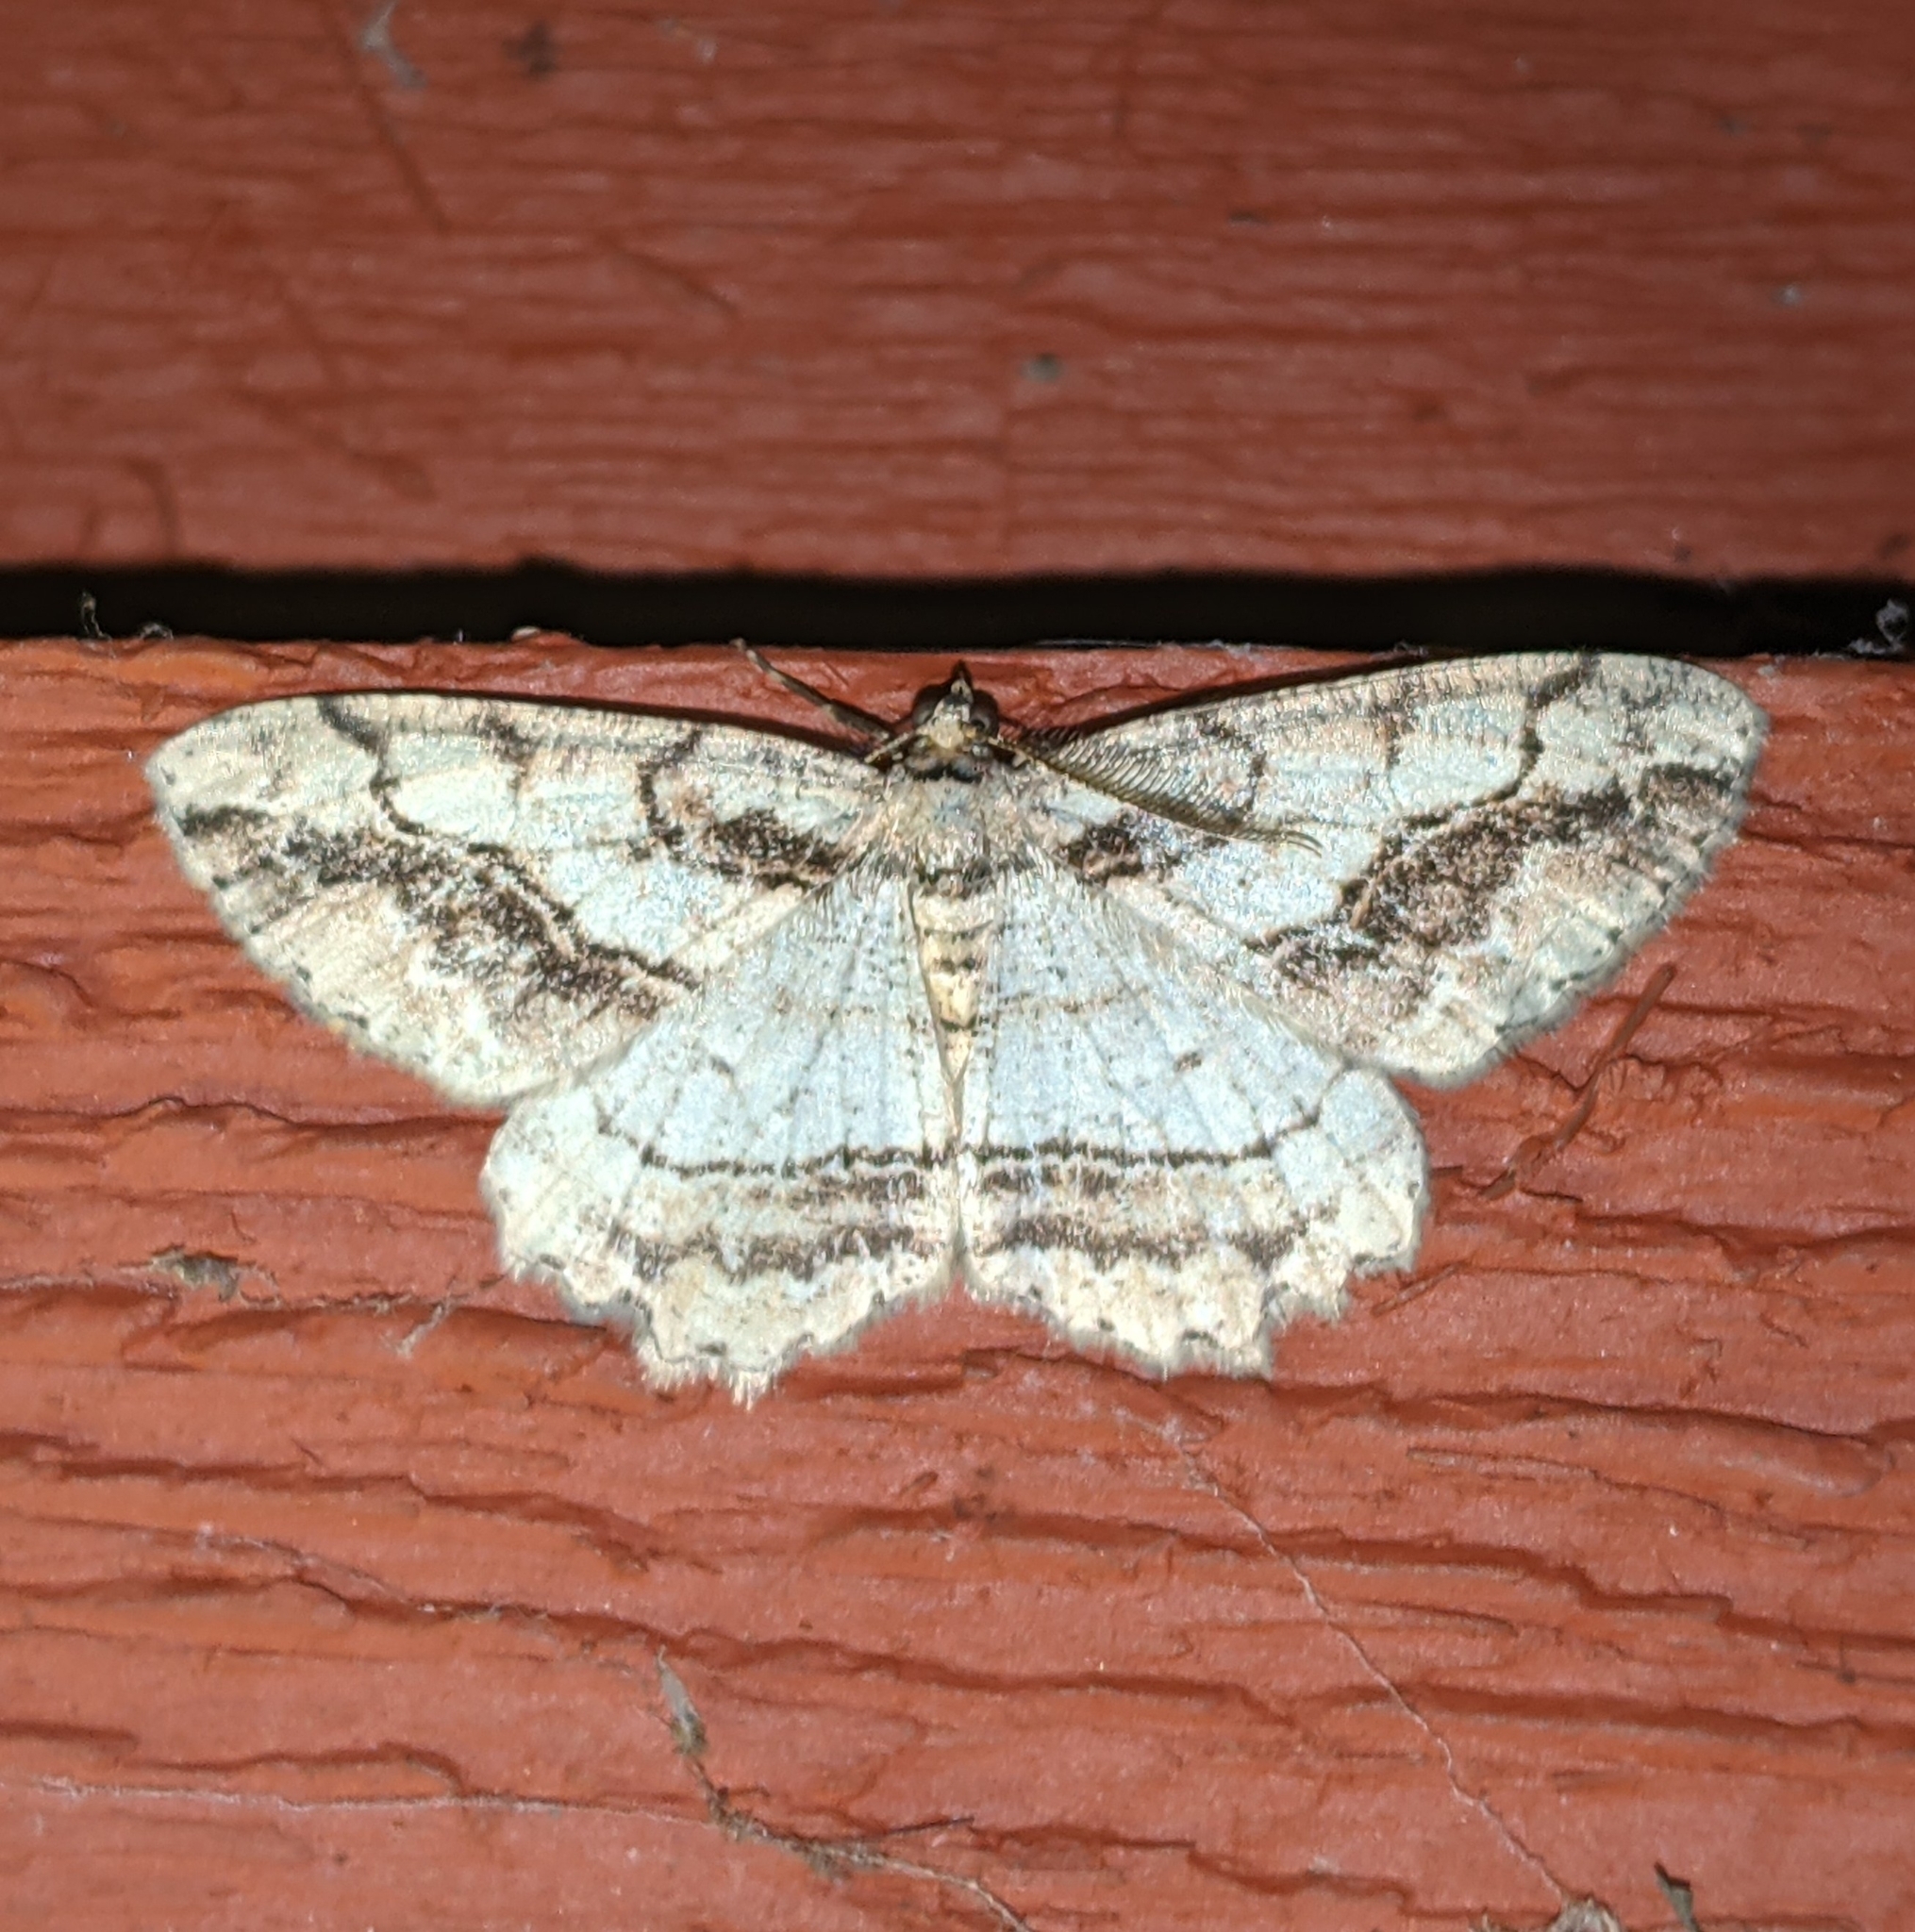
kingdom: Animalia
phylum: Arthropoda
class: Insecta
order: Lepidoptera
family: Geometridae
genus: Neoalcis
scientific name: Neoalcis californiaria
